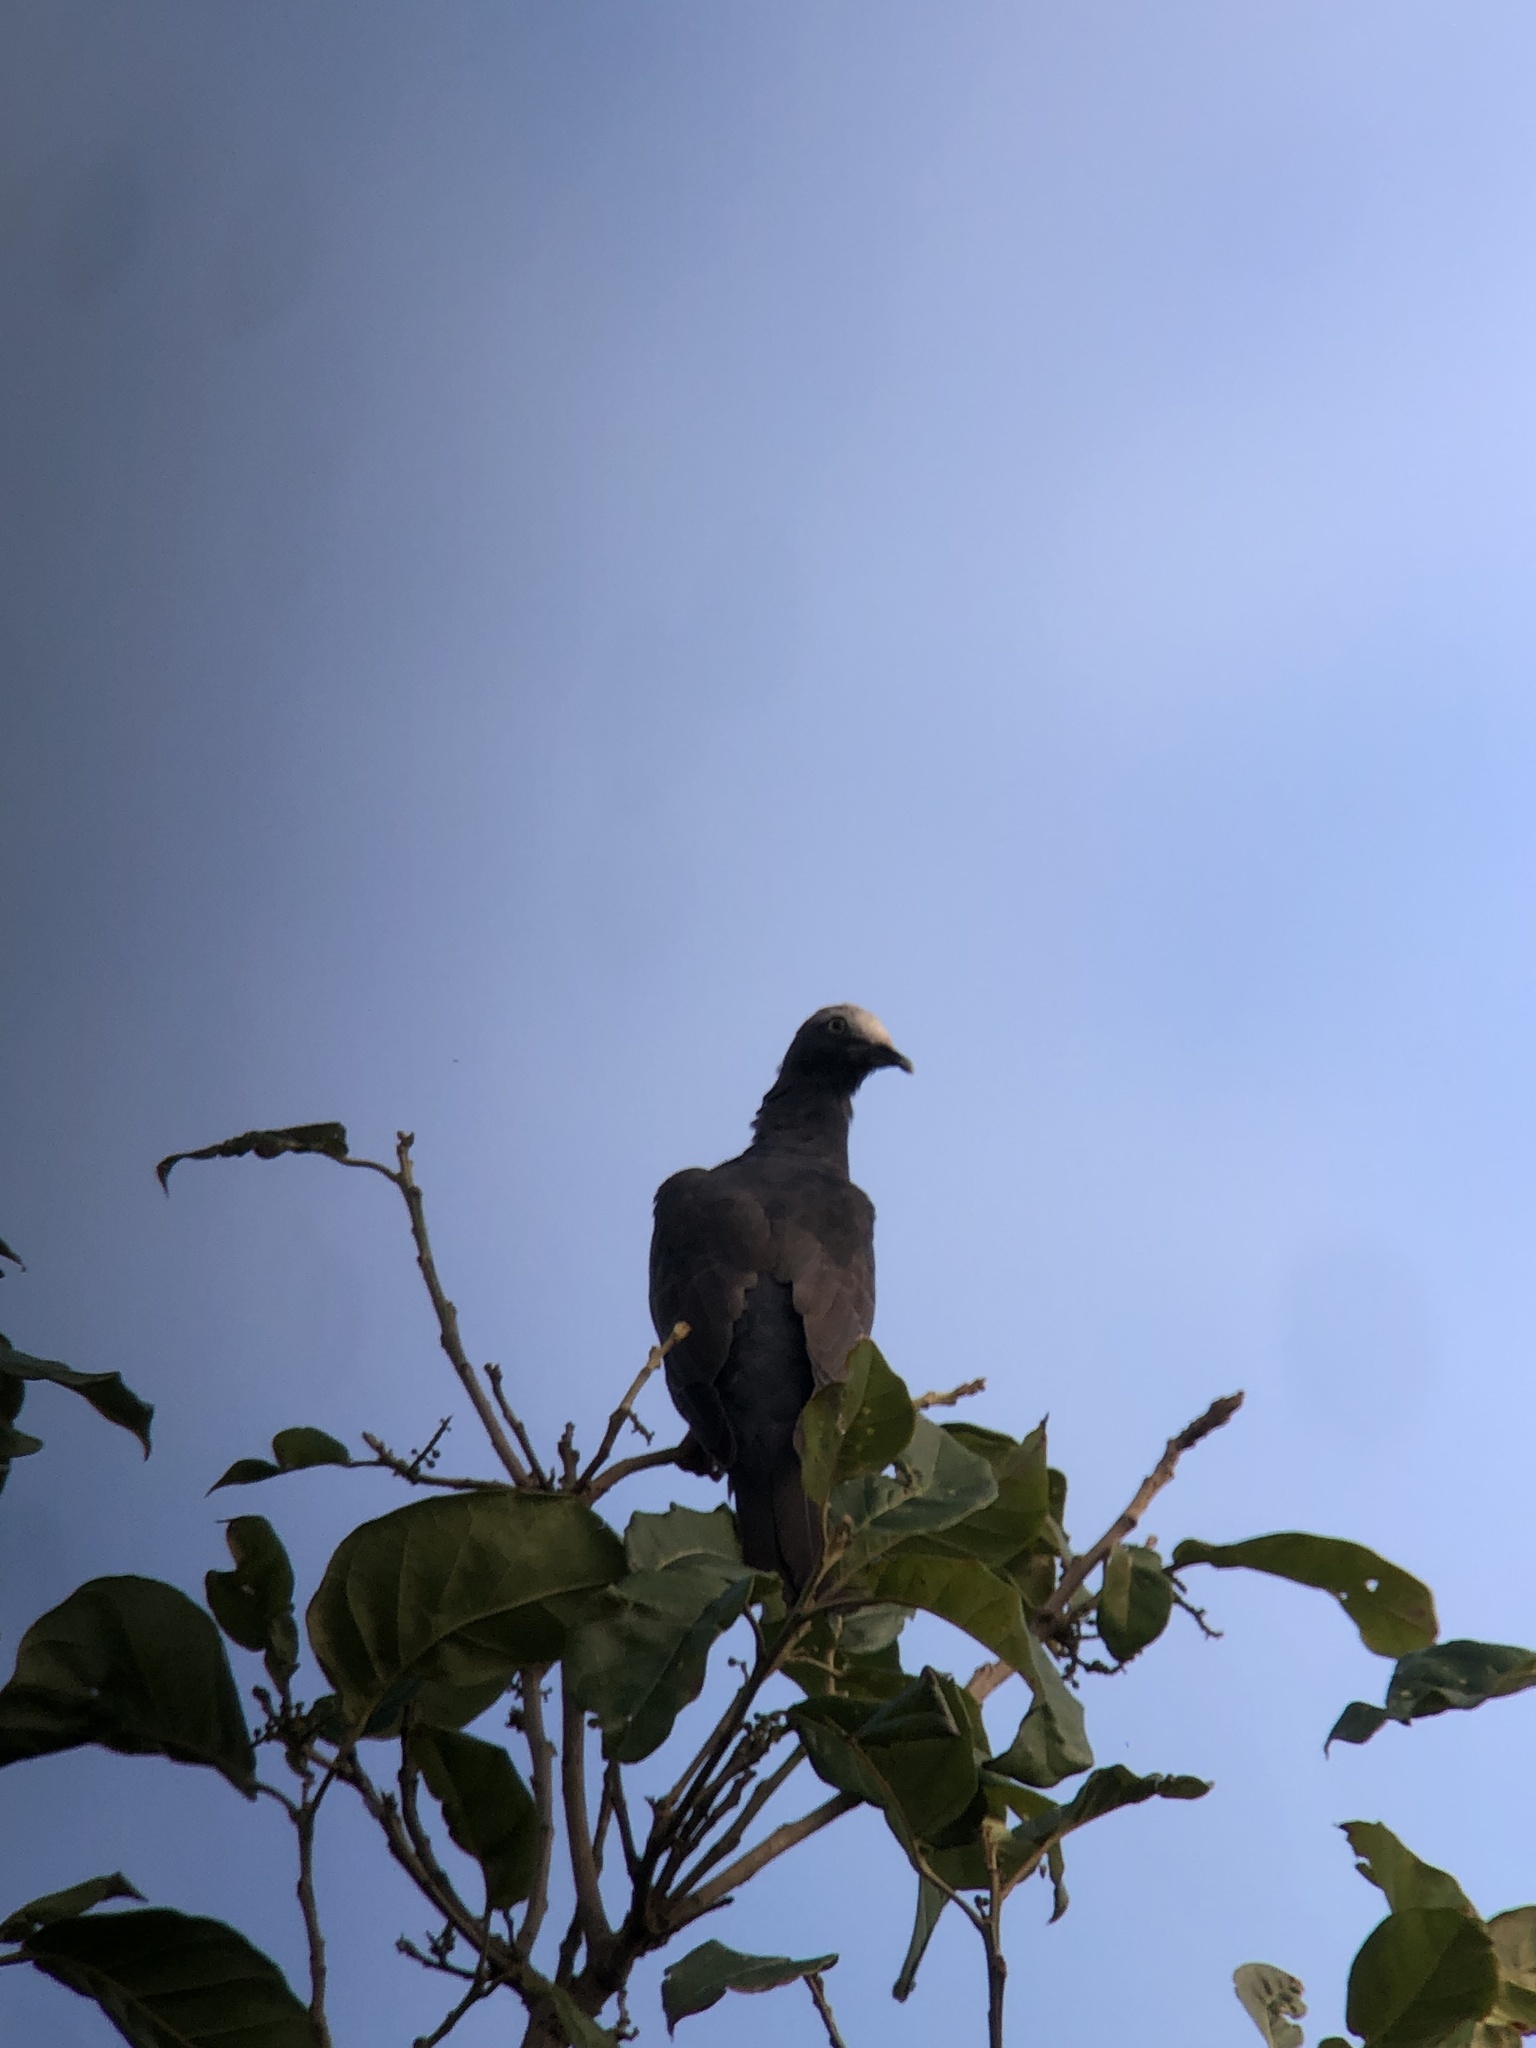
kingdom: Animalia
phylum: Chordata
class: Aves
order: Columbiformes
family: Columbidae
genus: Patagioenas
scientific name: Patagioenas leucocephala
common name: White-crowned pigeon
